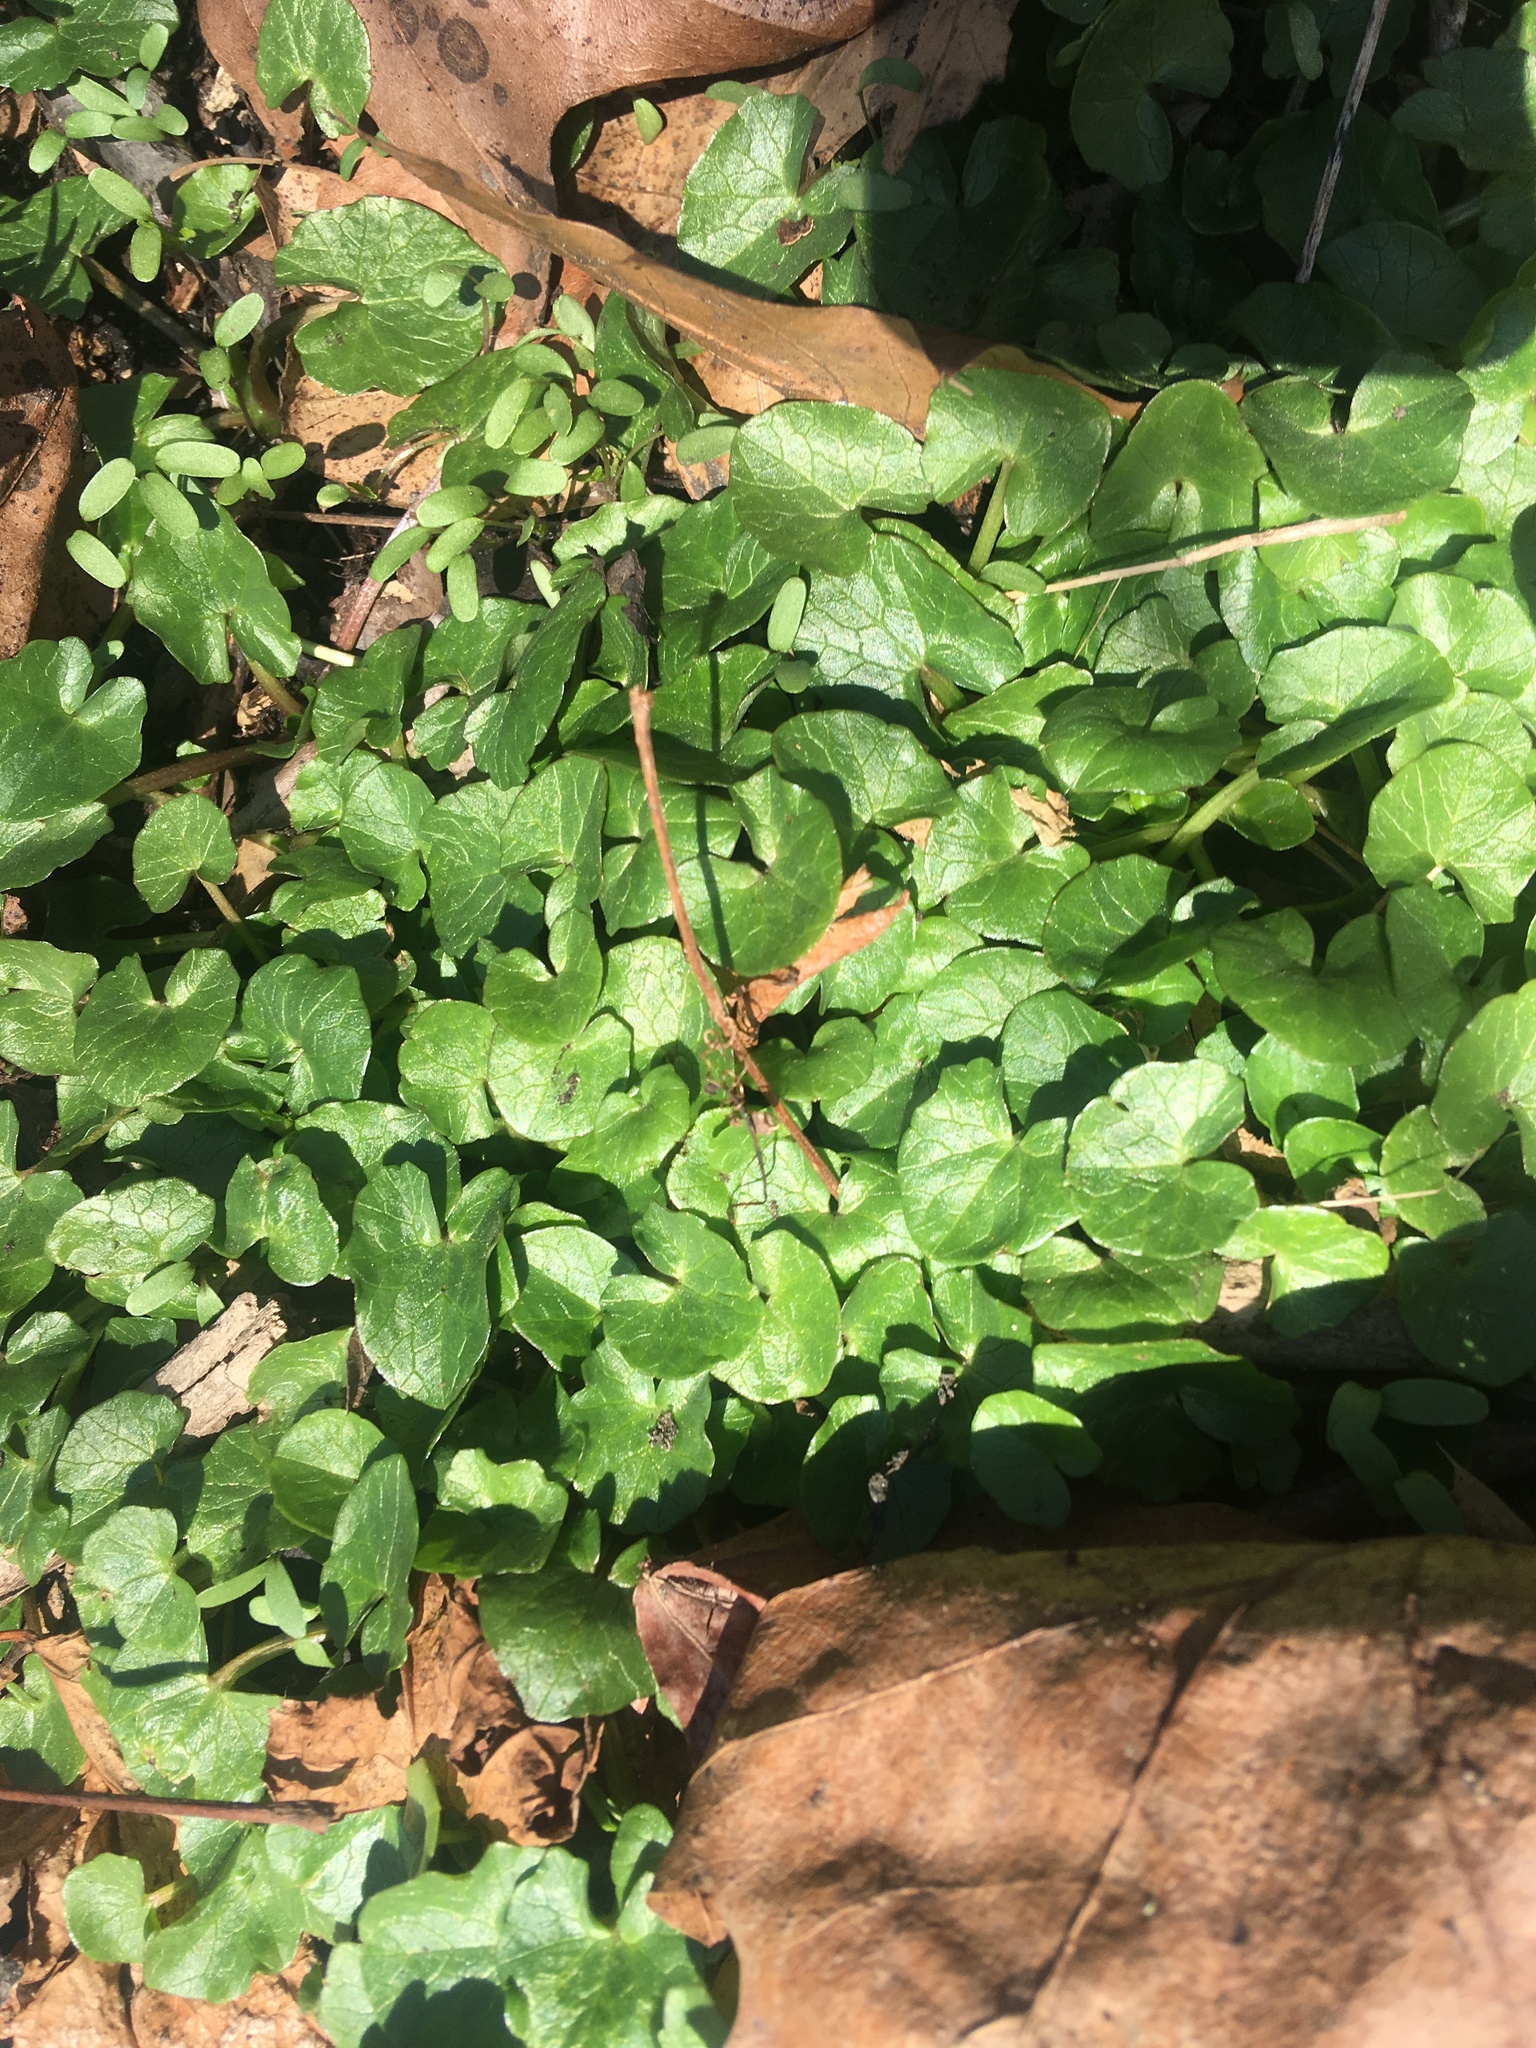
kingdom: Plantae
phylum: Tracheophyta
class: Magnoliopsida
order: Ranunculales
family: Ranunculaceae
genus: Ficaria
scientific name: Ficaria verna
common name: Lesser celandine
